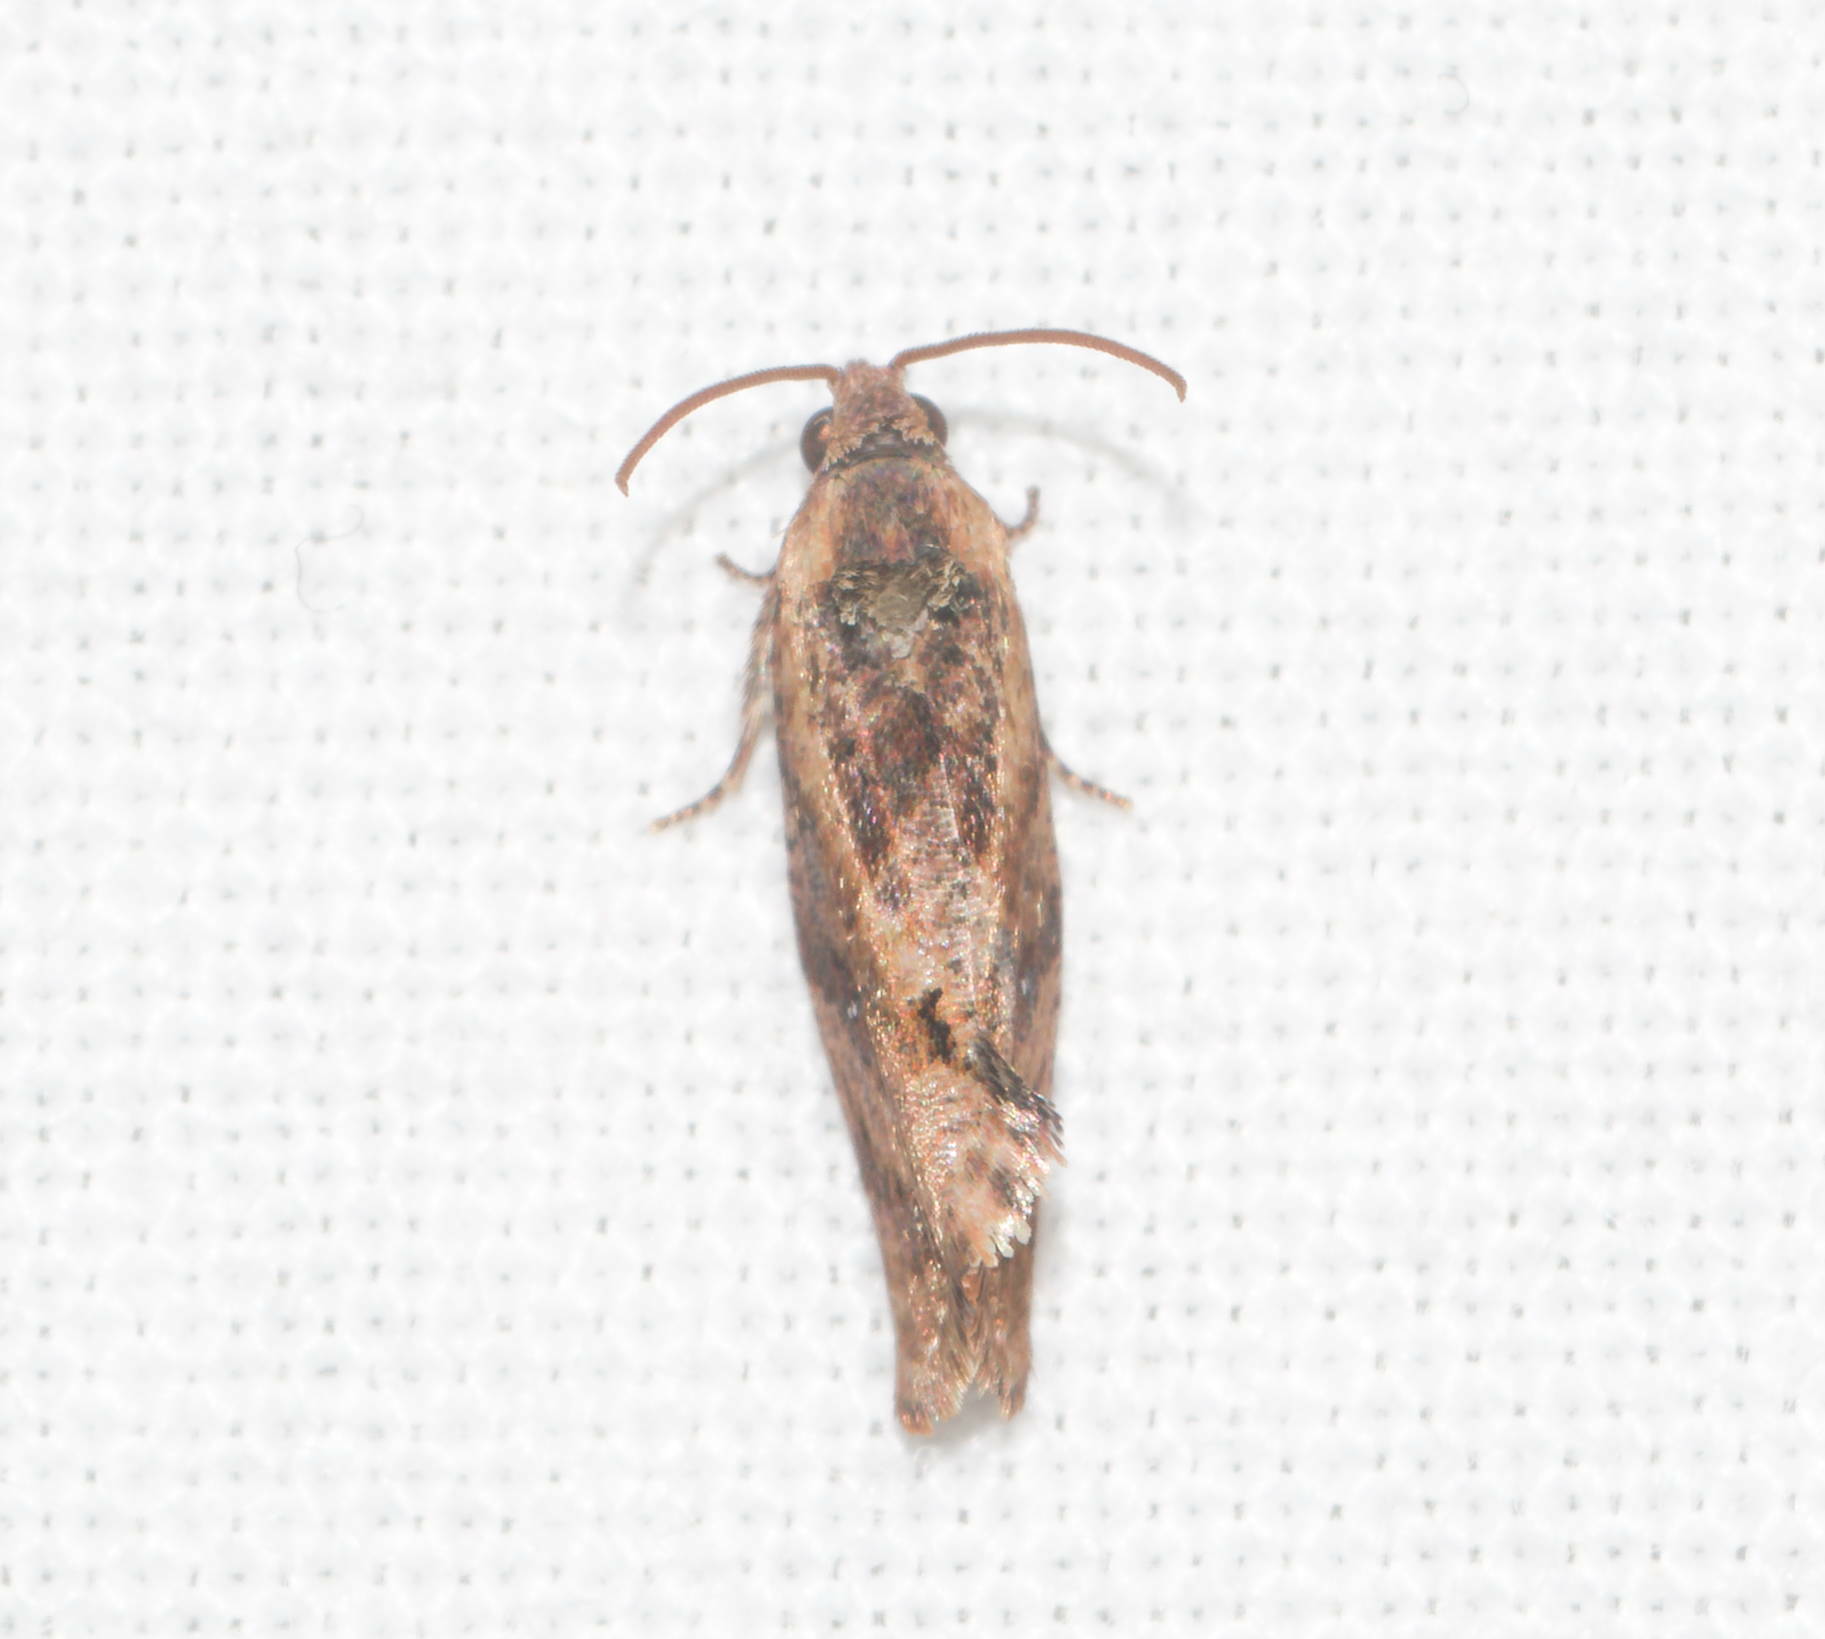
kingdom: Animalia
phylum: Arthropoda
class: Insecta
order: Lepidoptera
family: Tortricidae
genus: Cryptophlebia
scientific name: Cryptophlebia illepida
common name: Moth
